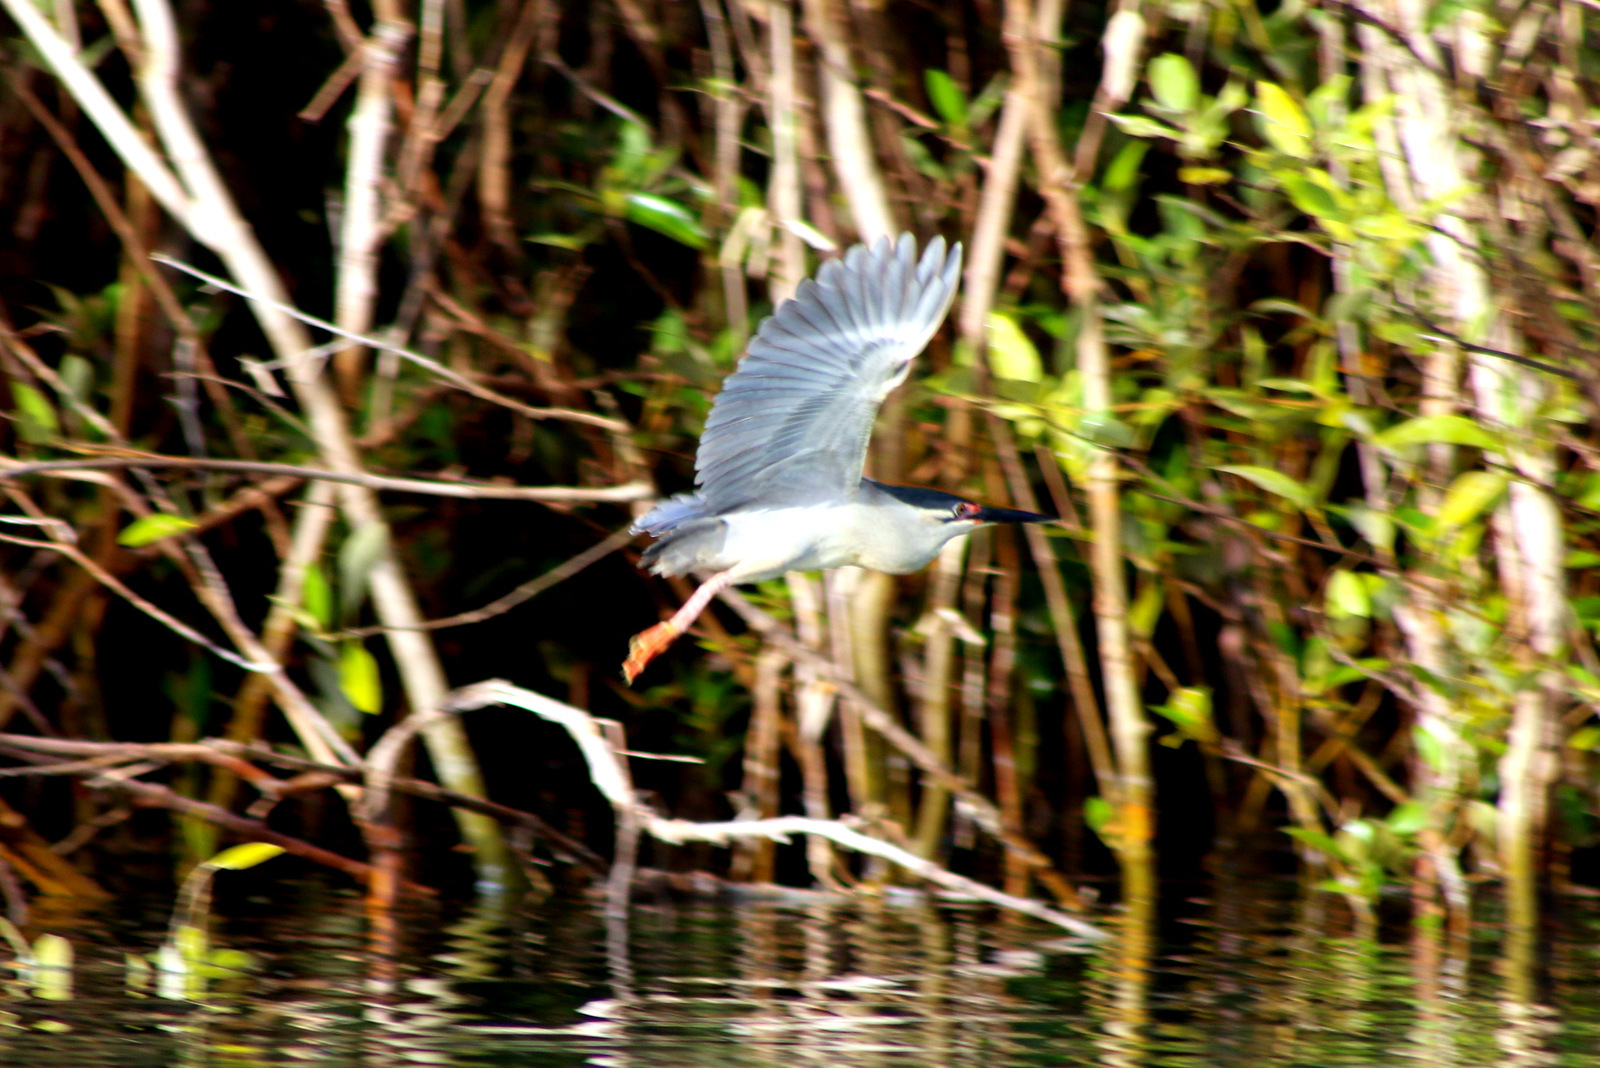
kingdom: Animalia
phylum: Chordata
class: Aves
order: Pelecaniformes
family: Ardeidae
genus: Butorides
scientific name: Butorides striata
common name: Striated heron
